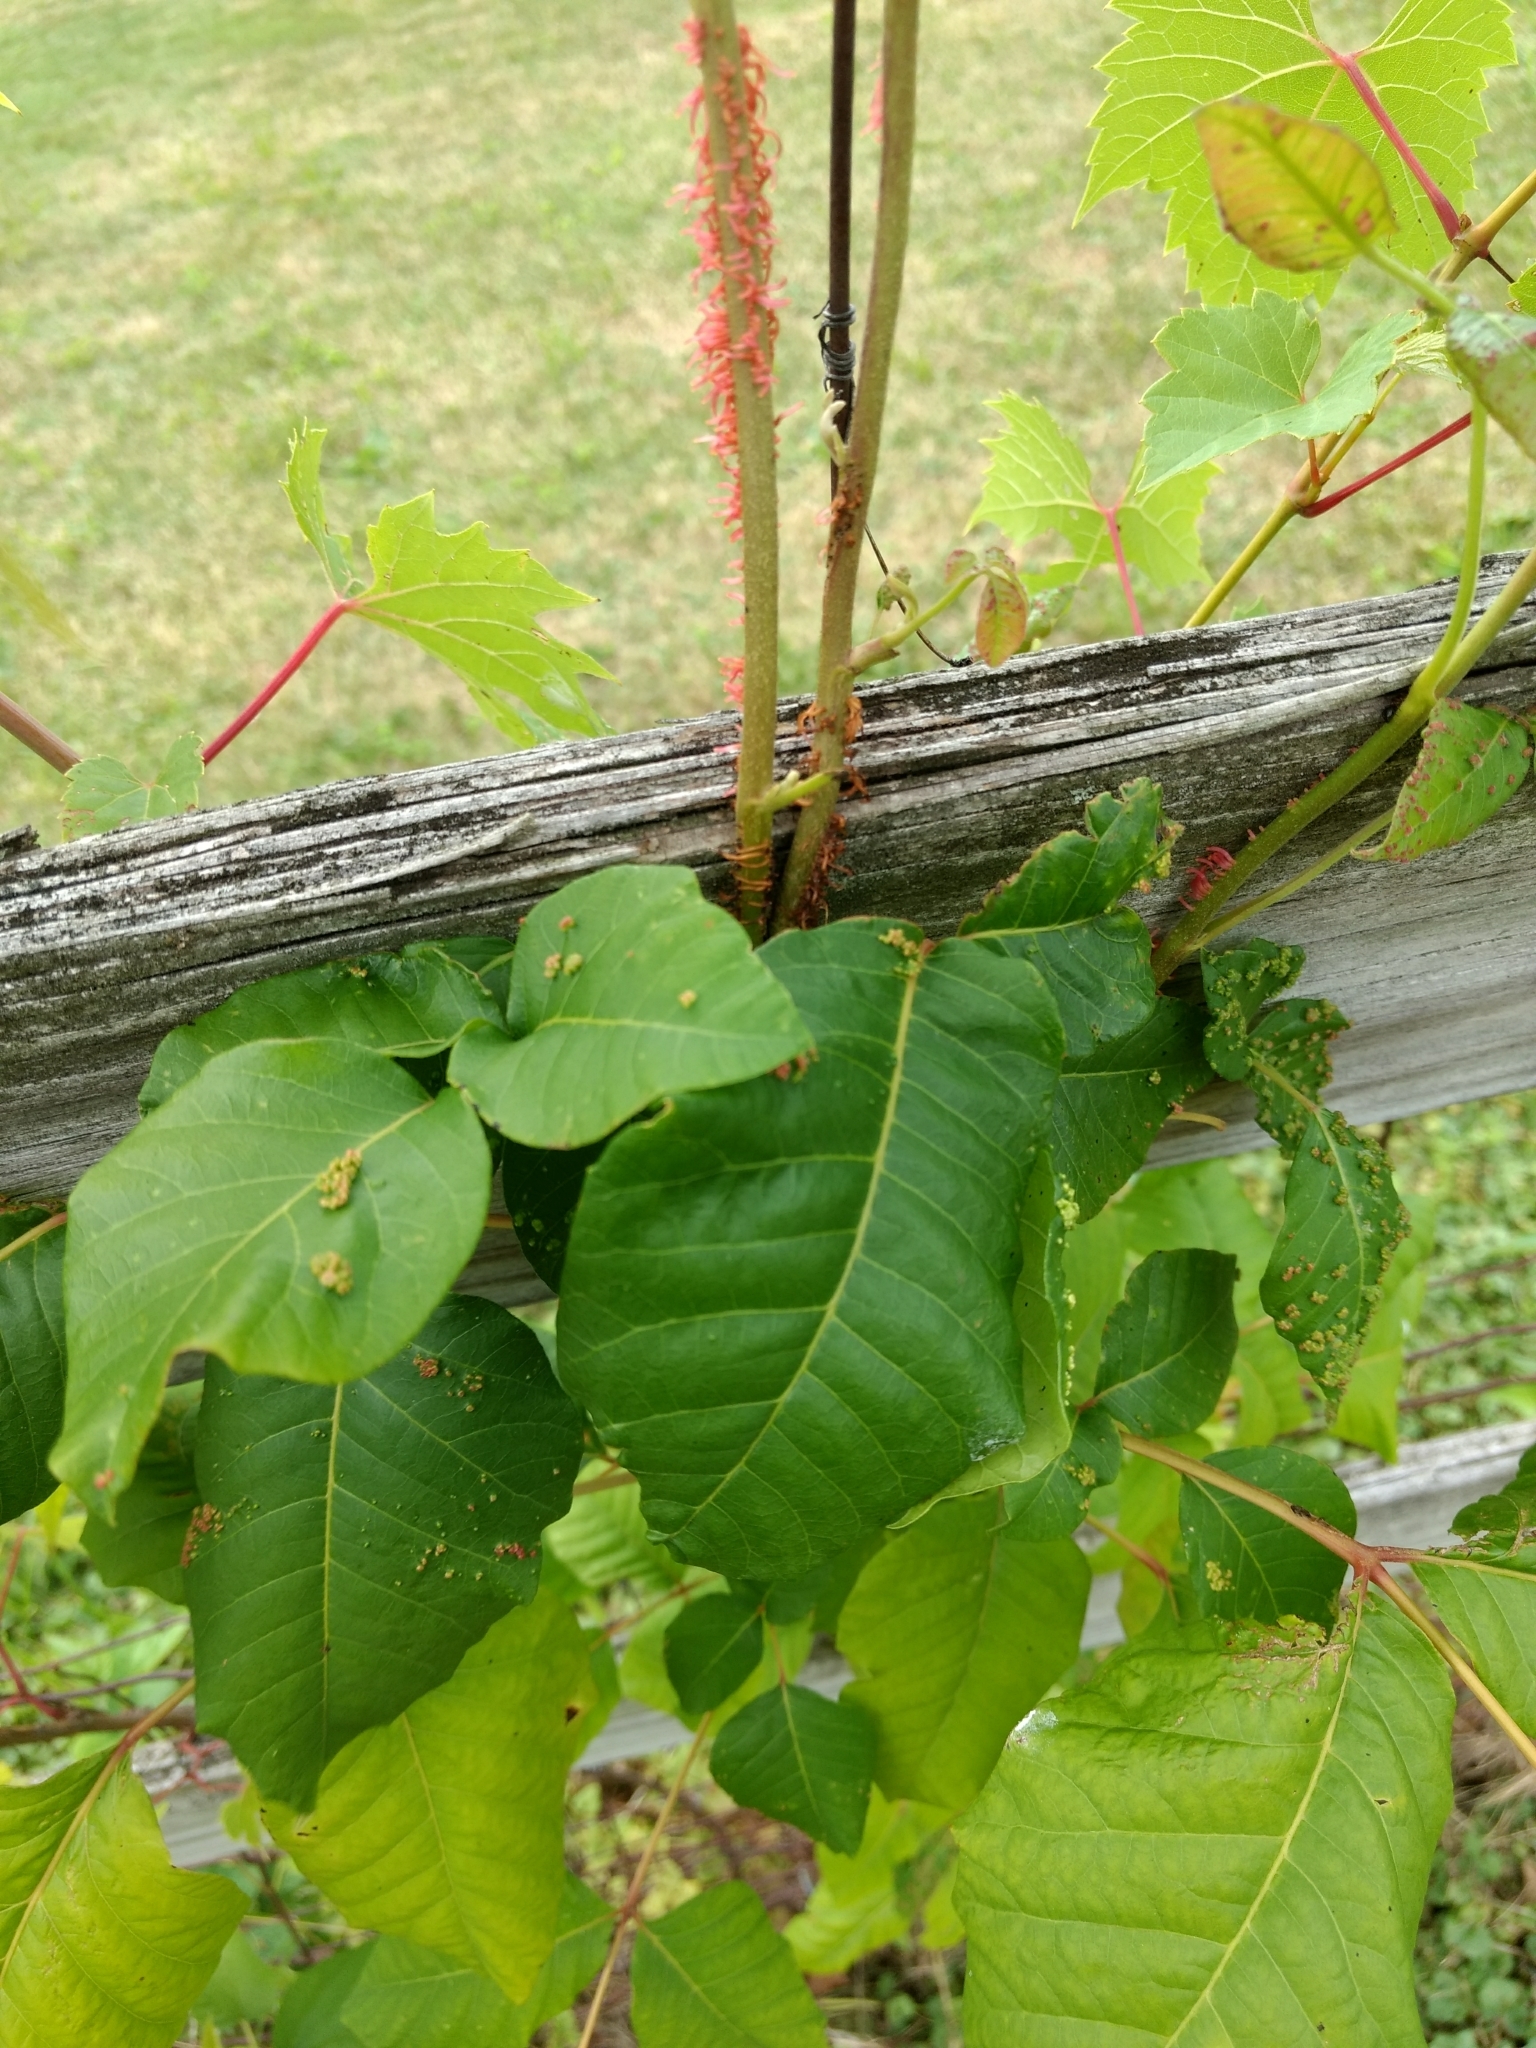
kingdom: Plantae
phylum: Tracheophyta
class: Magnoliopsida
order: Sapindales
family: Anacardiaceae
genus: Toxicodendron
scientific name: Toxicodendron radicans
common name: Poison ivy
